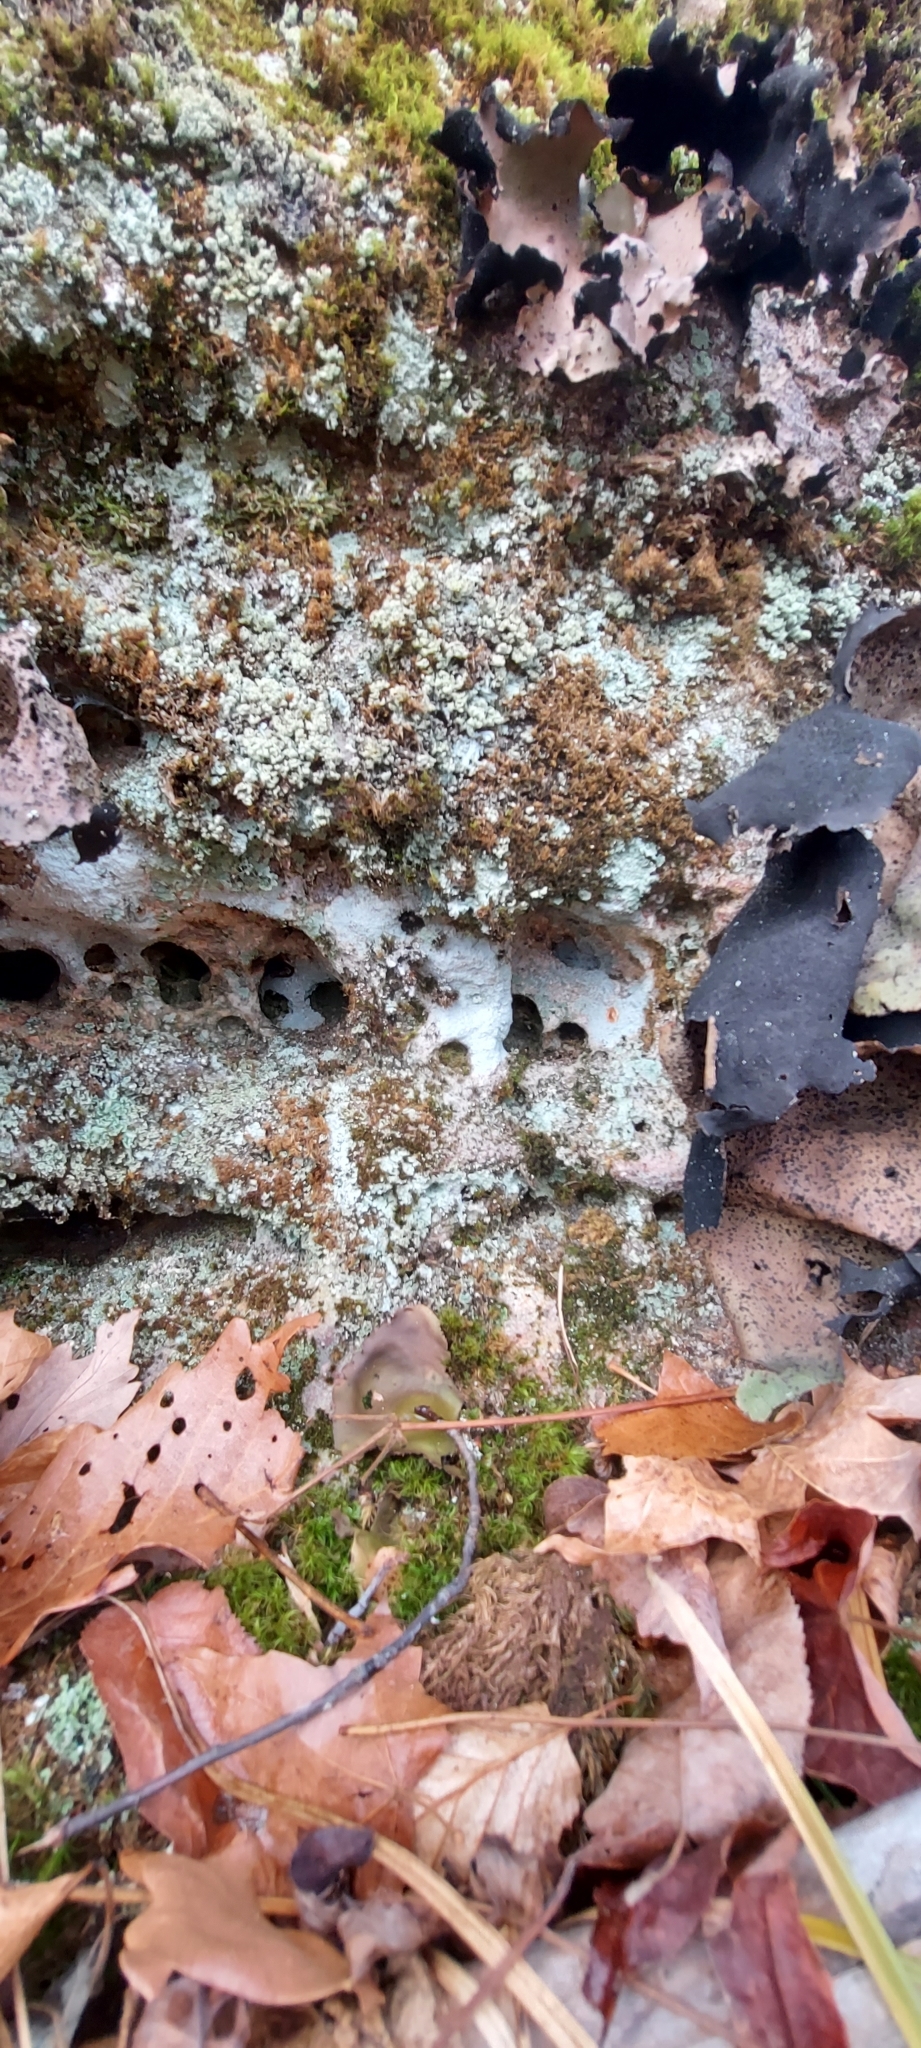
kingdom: Fungi
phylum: Ascomycota
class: Lecanoromycetes
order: Umbilicariales
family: Umbilicariaceae
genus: Umbilicaria
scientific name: Umbilicaria mammulata
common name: Smooth rock tripe
